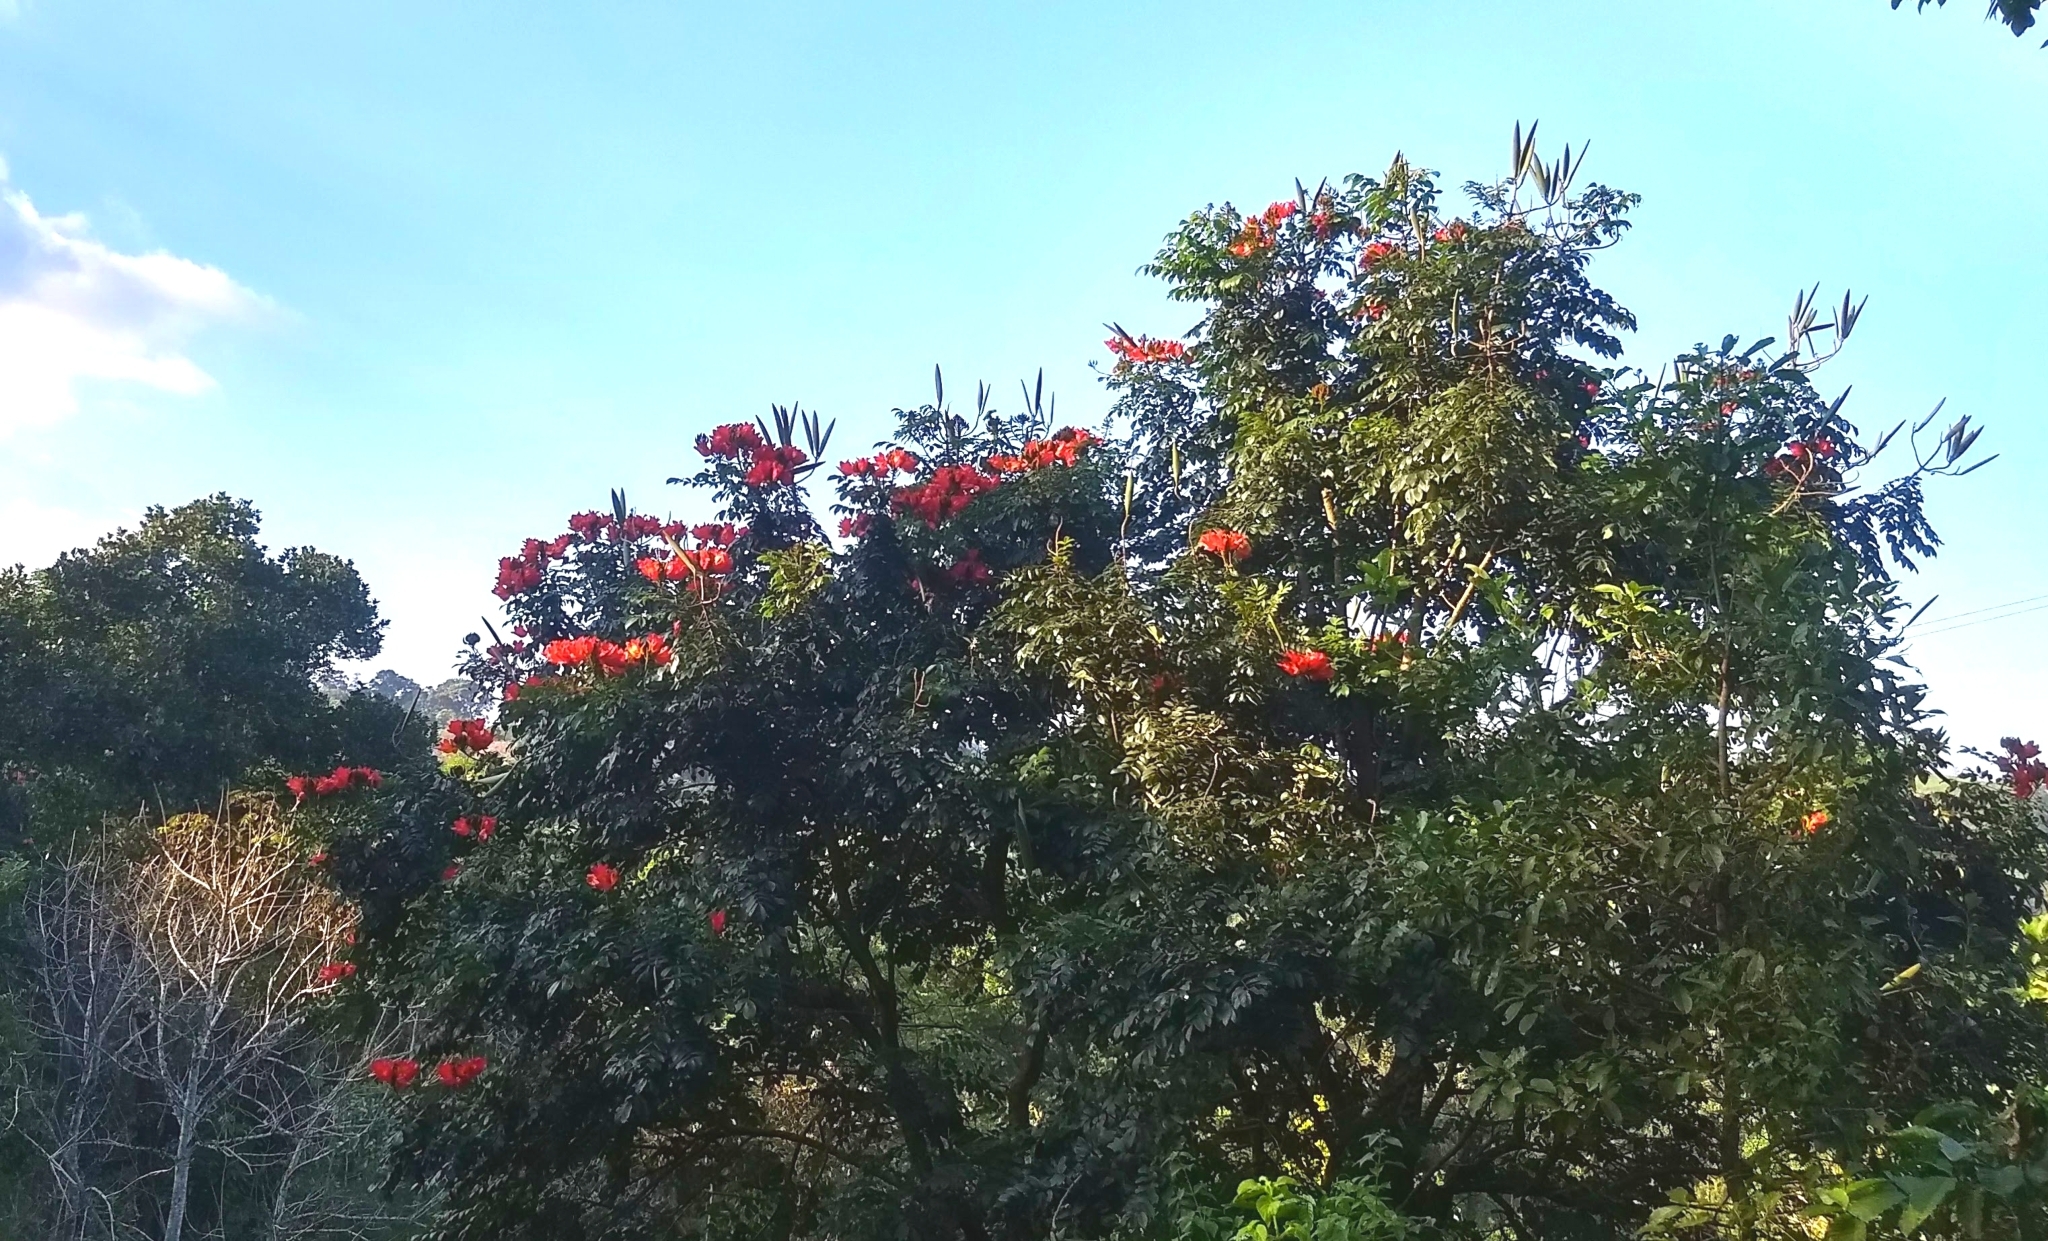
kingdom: Plantae
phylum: Tracheophyta
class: Magnoliopsida
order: Lamiales
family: Bignoniaceae
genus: Spathodea
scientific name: Spathodea campanulata
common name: African tuliptree
